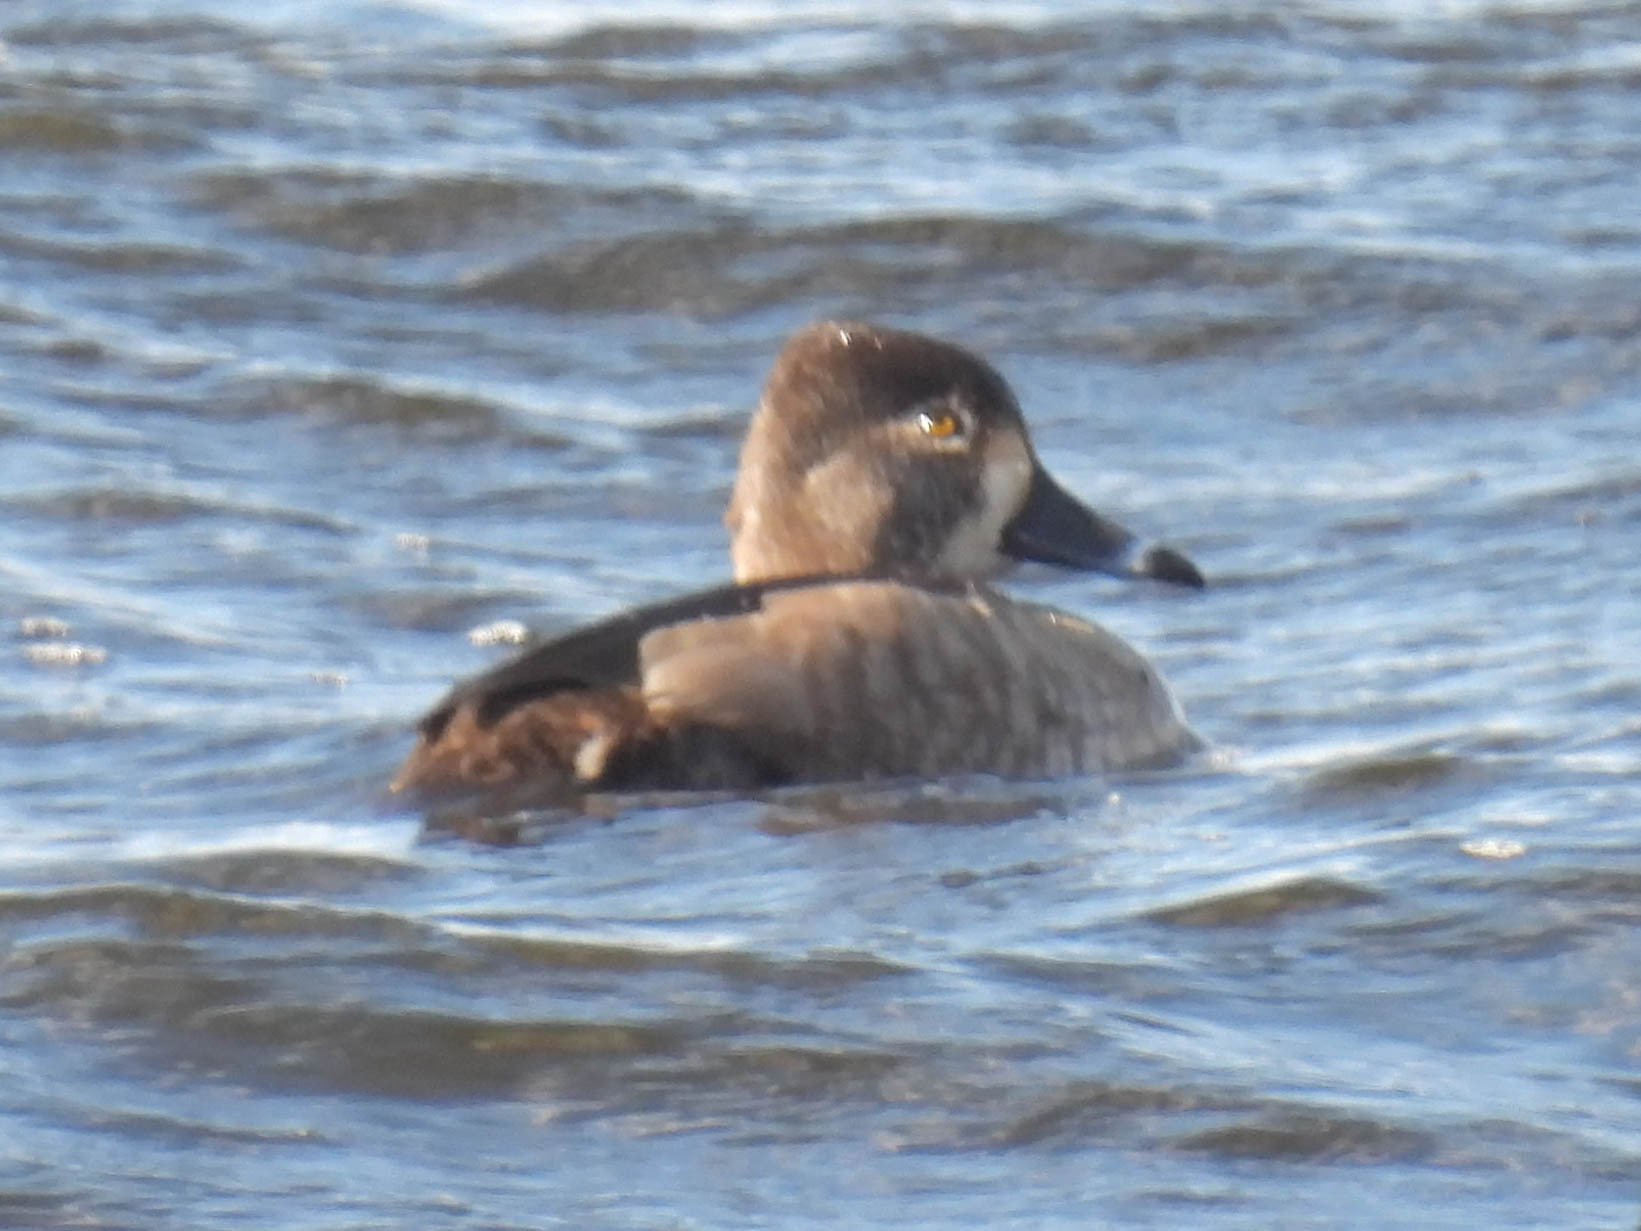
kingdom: Animalia
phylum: Chordata
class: Aves
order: Anseriformes
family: Anatidae
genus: Aythya
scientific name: Aythya collaris
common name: Ring-necked duck
